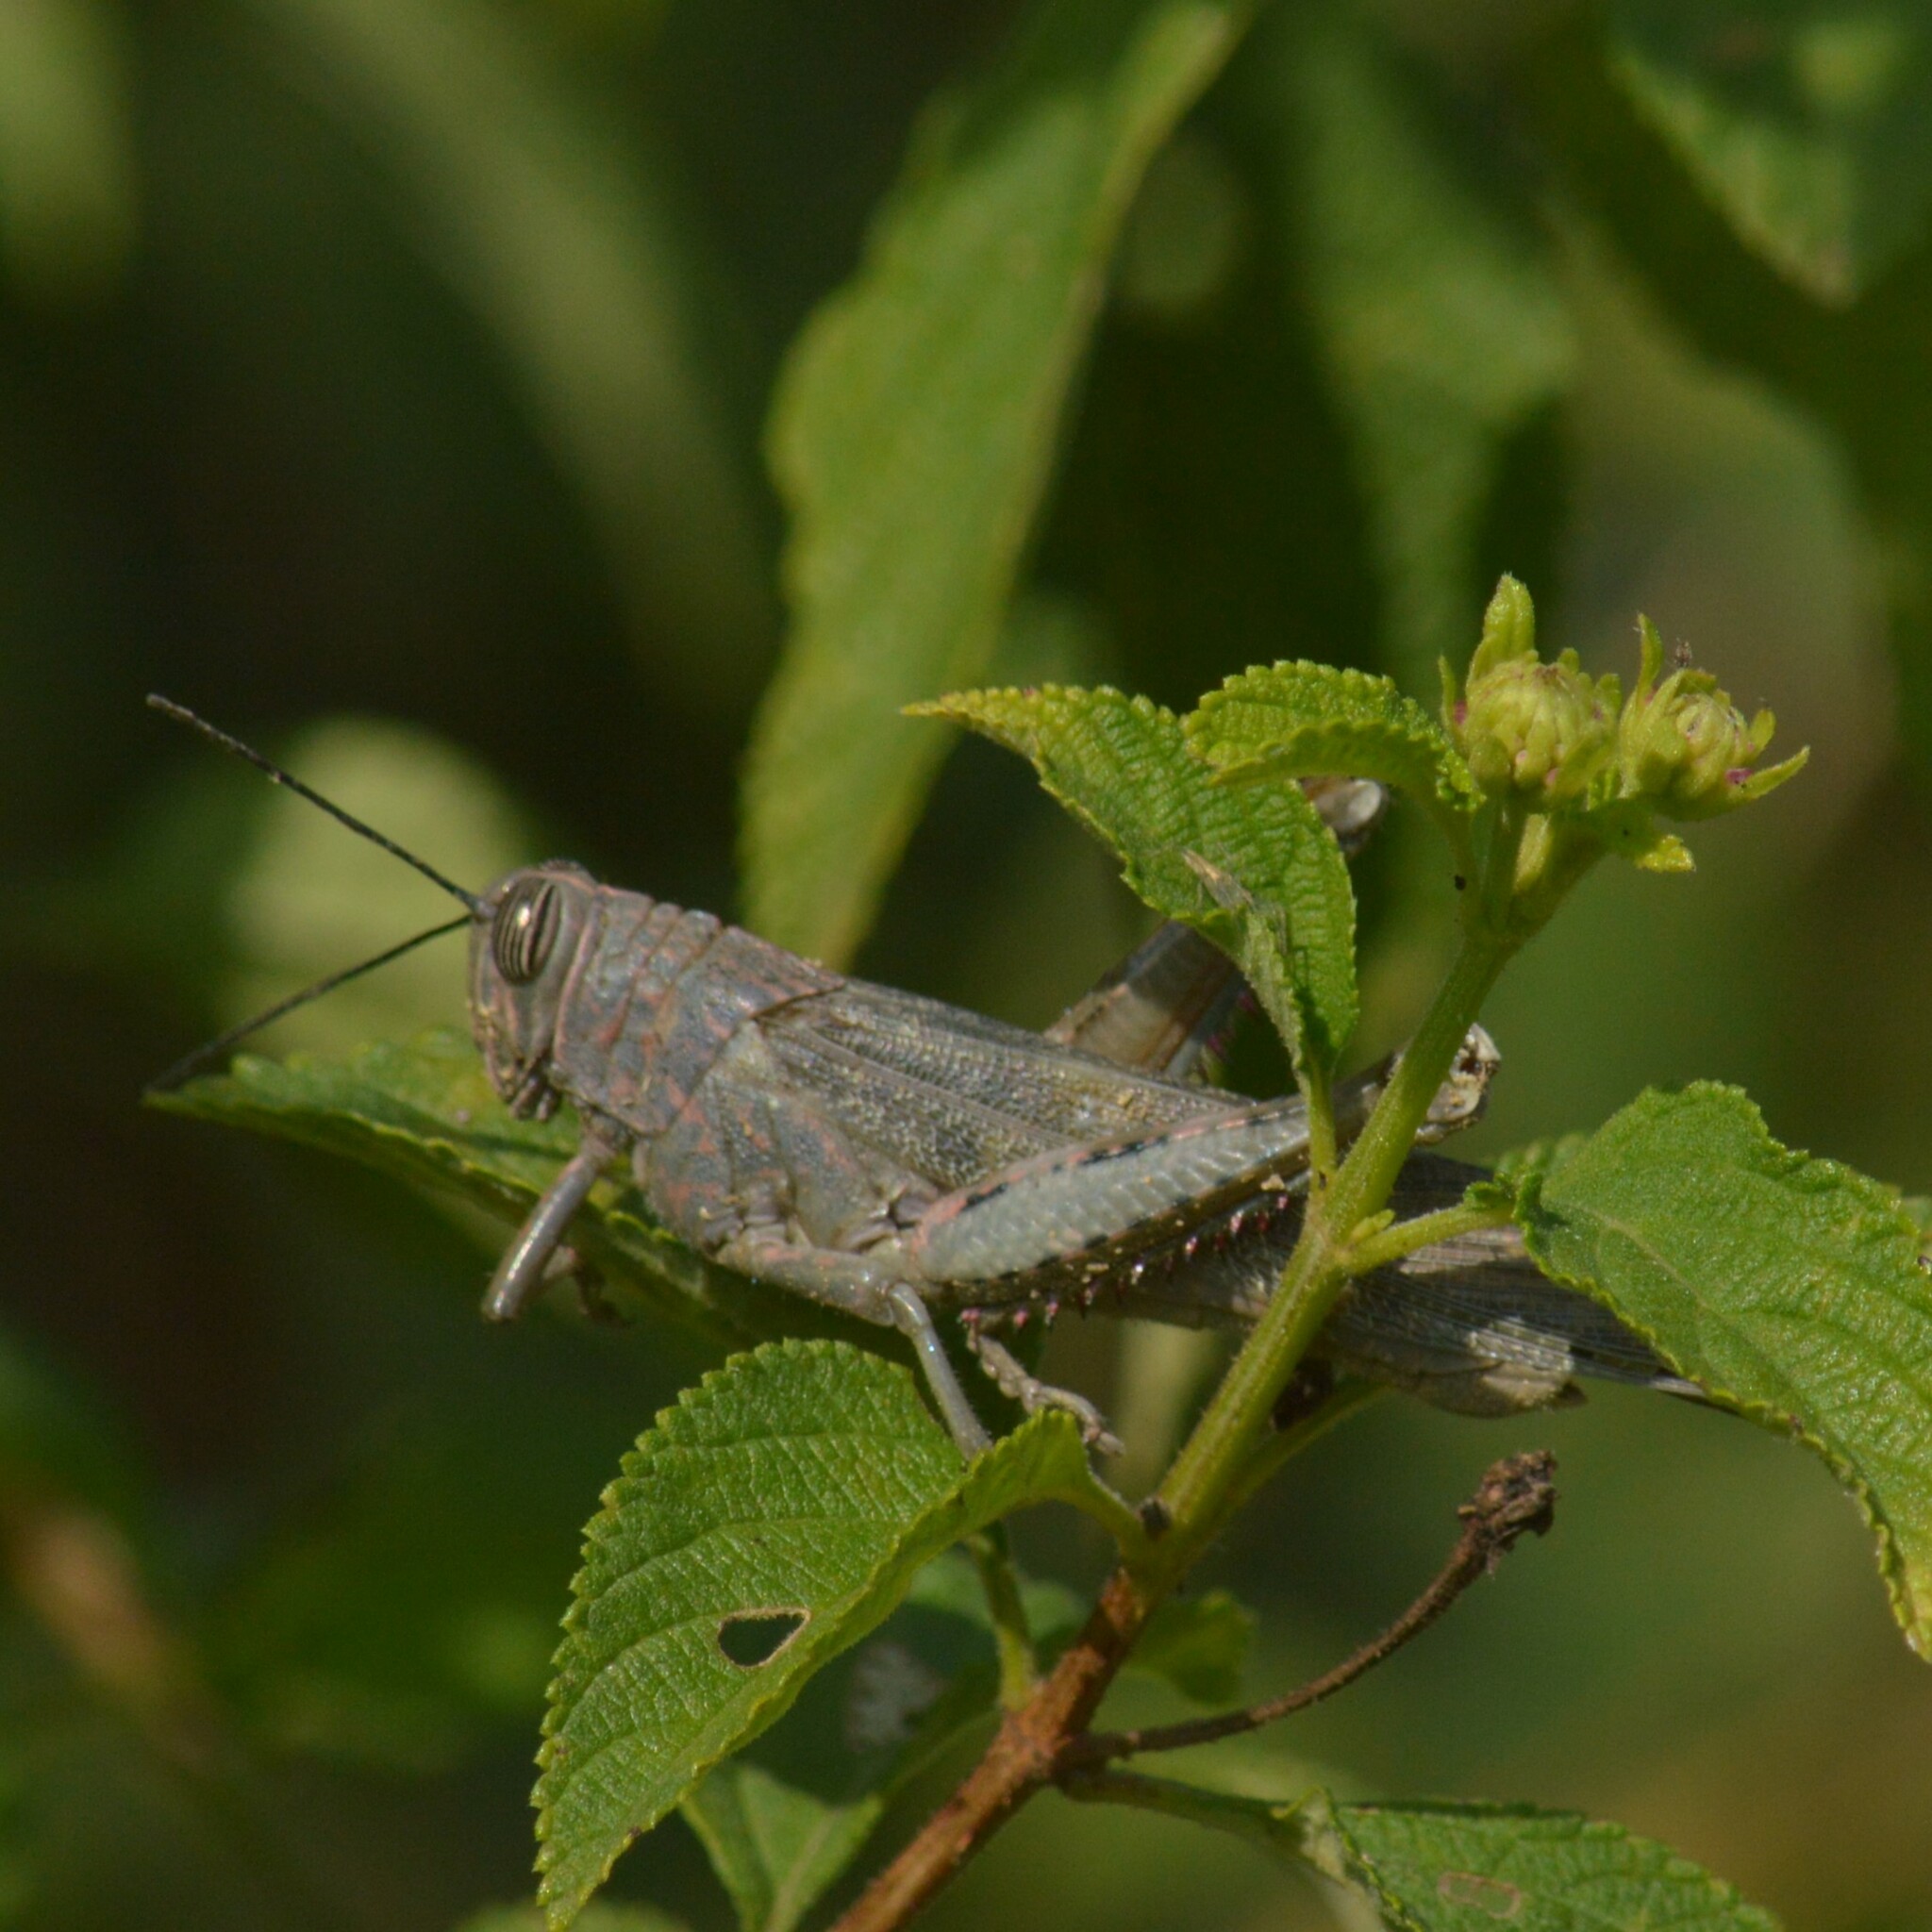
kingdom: Animalia
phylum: Arthropoda
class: Insecta
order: Orthoptera
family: Acrididae
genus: Anacridium
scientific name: Anacridium flavescens
